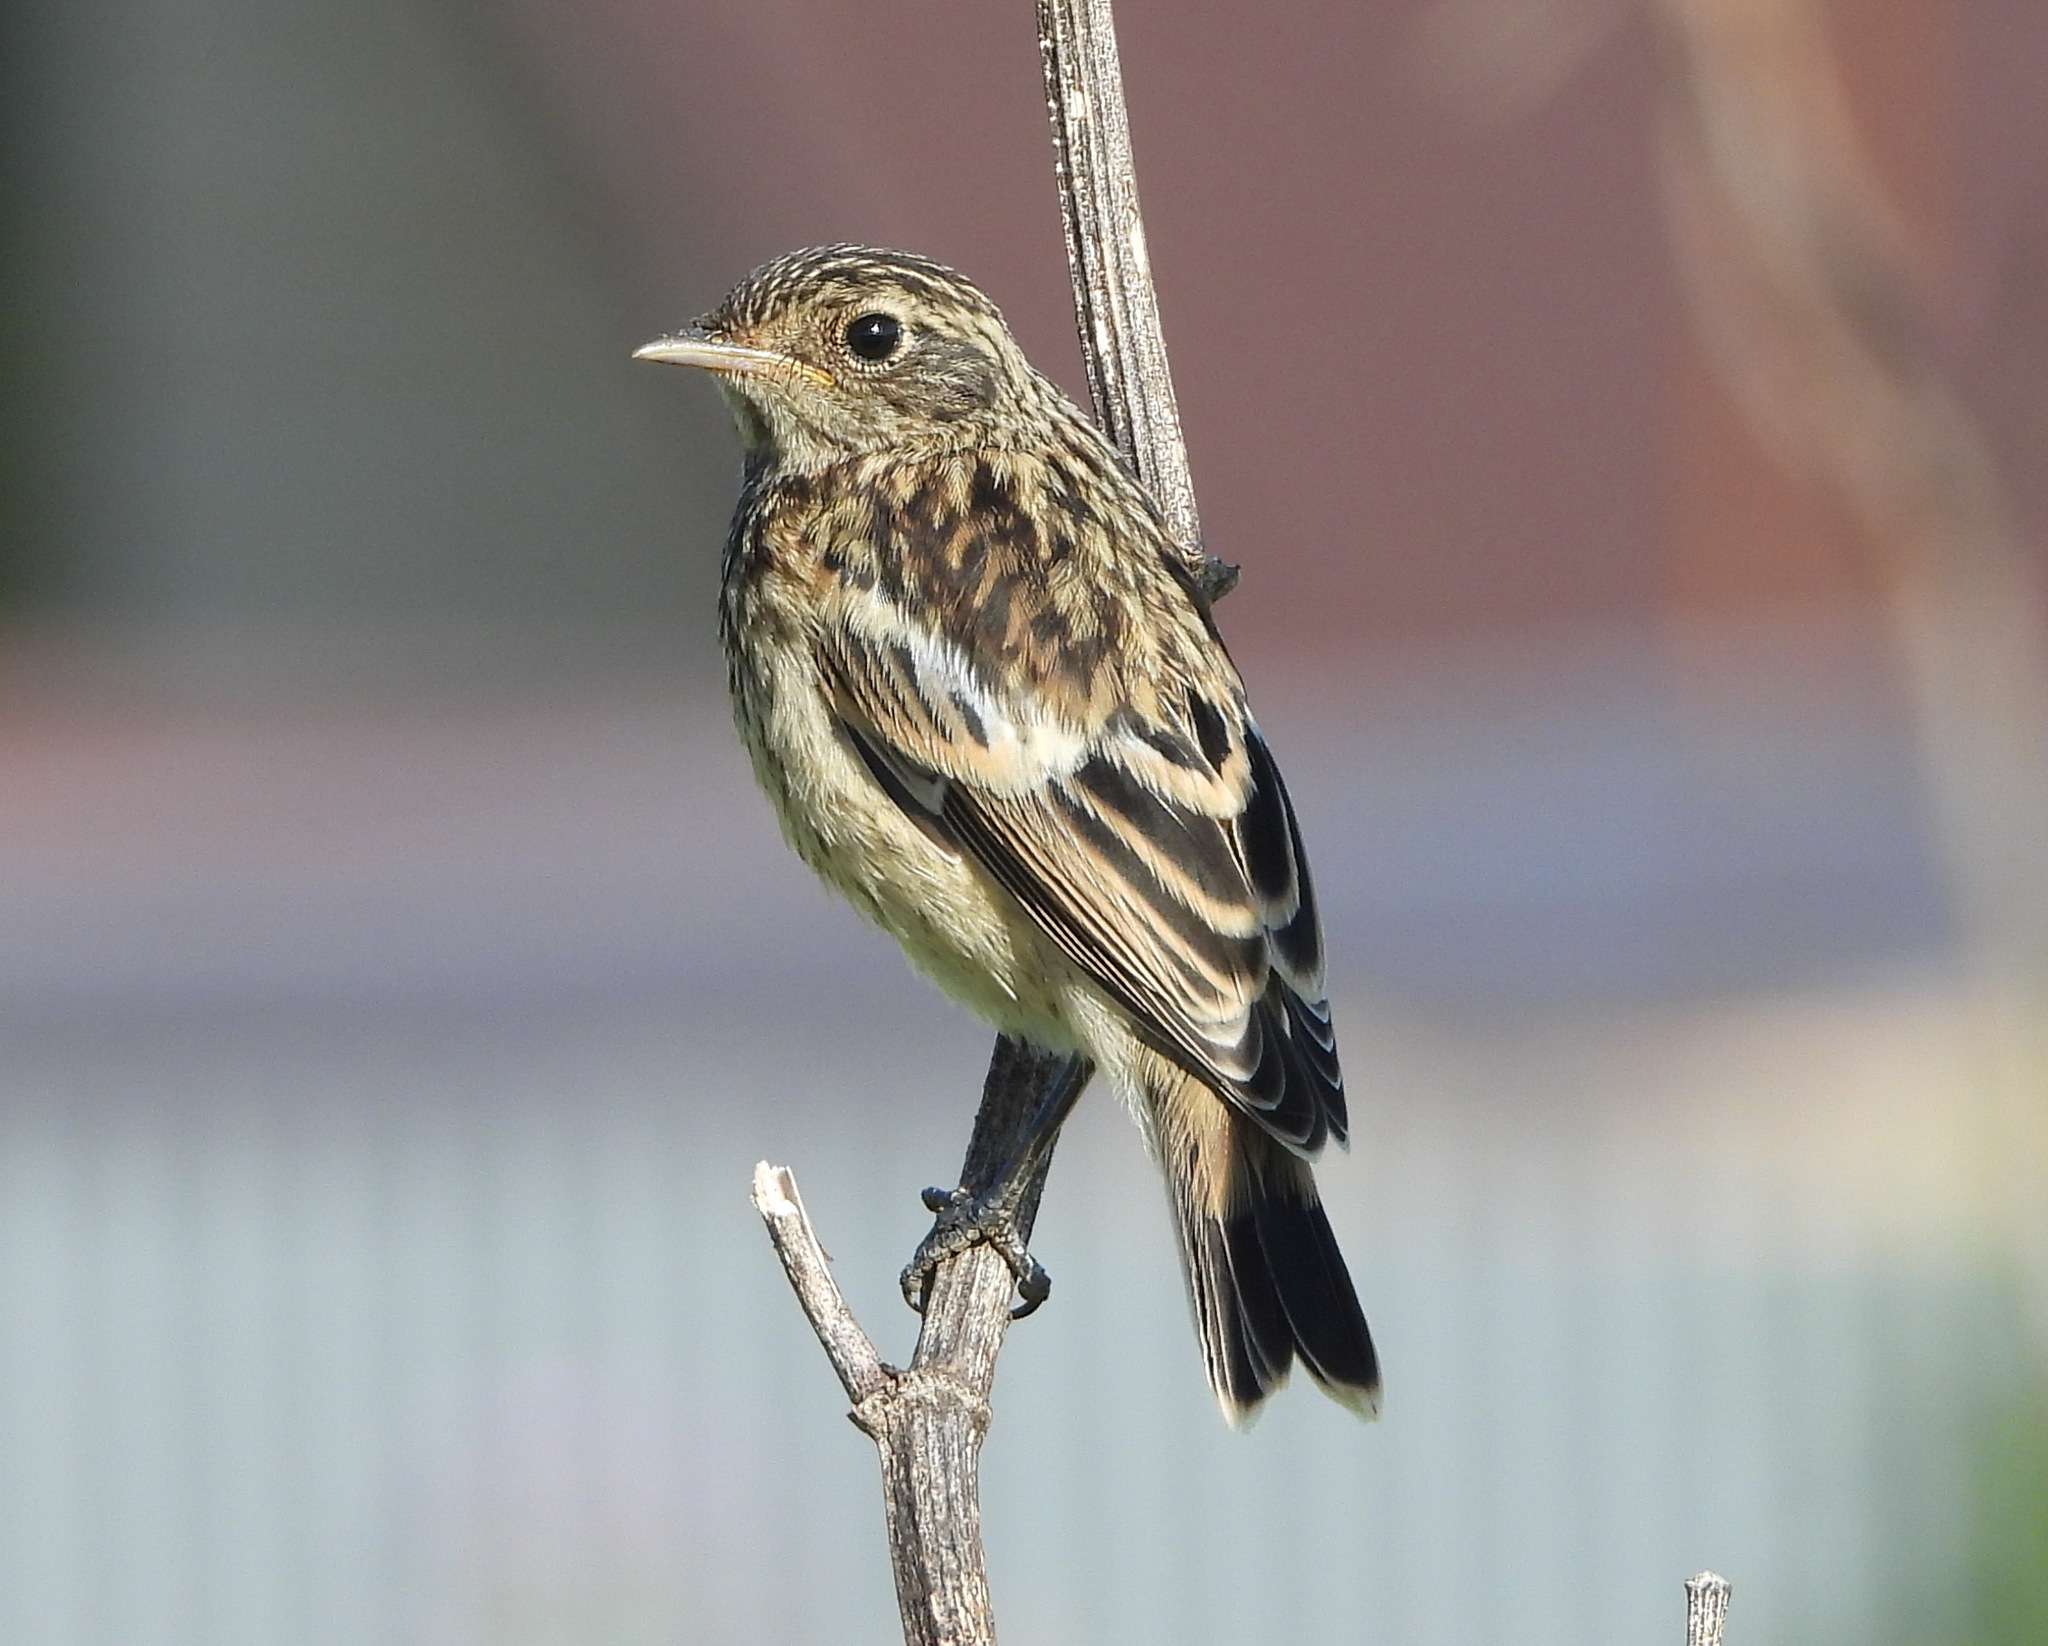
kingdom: Animalia
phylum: Chordata
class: Aves
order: Passeriformes
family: Muscicapidae
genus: Saxicola
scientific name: Saxicola maurus
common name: Siberian stonechat
